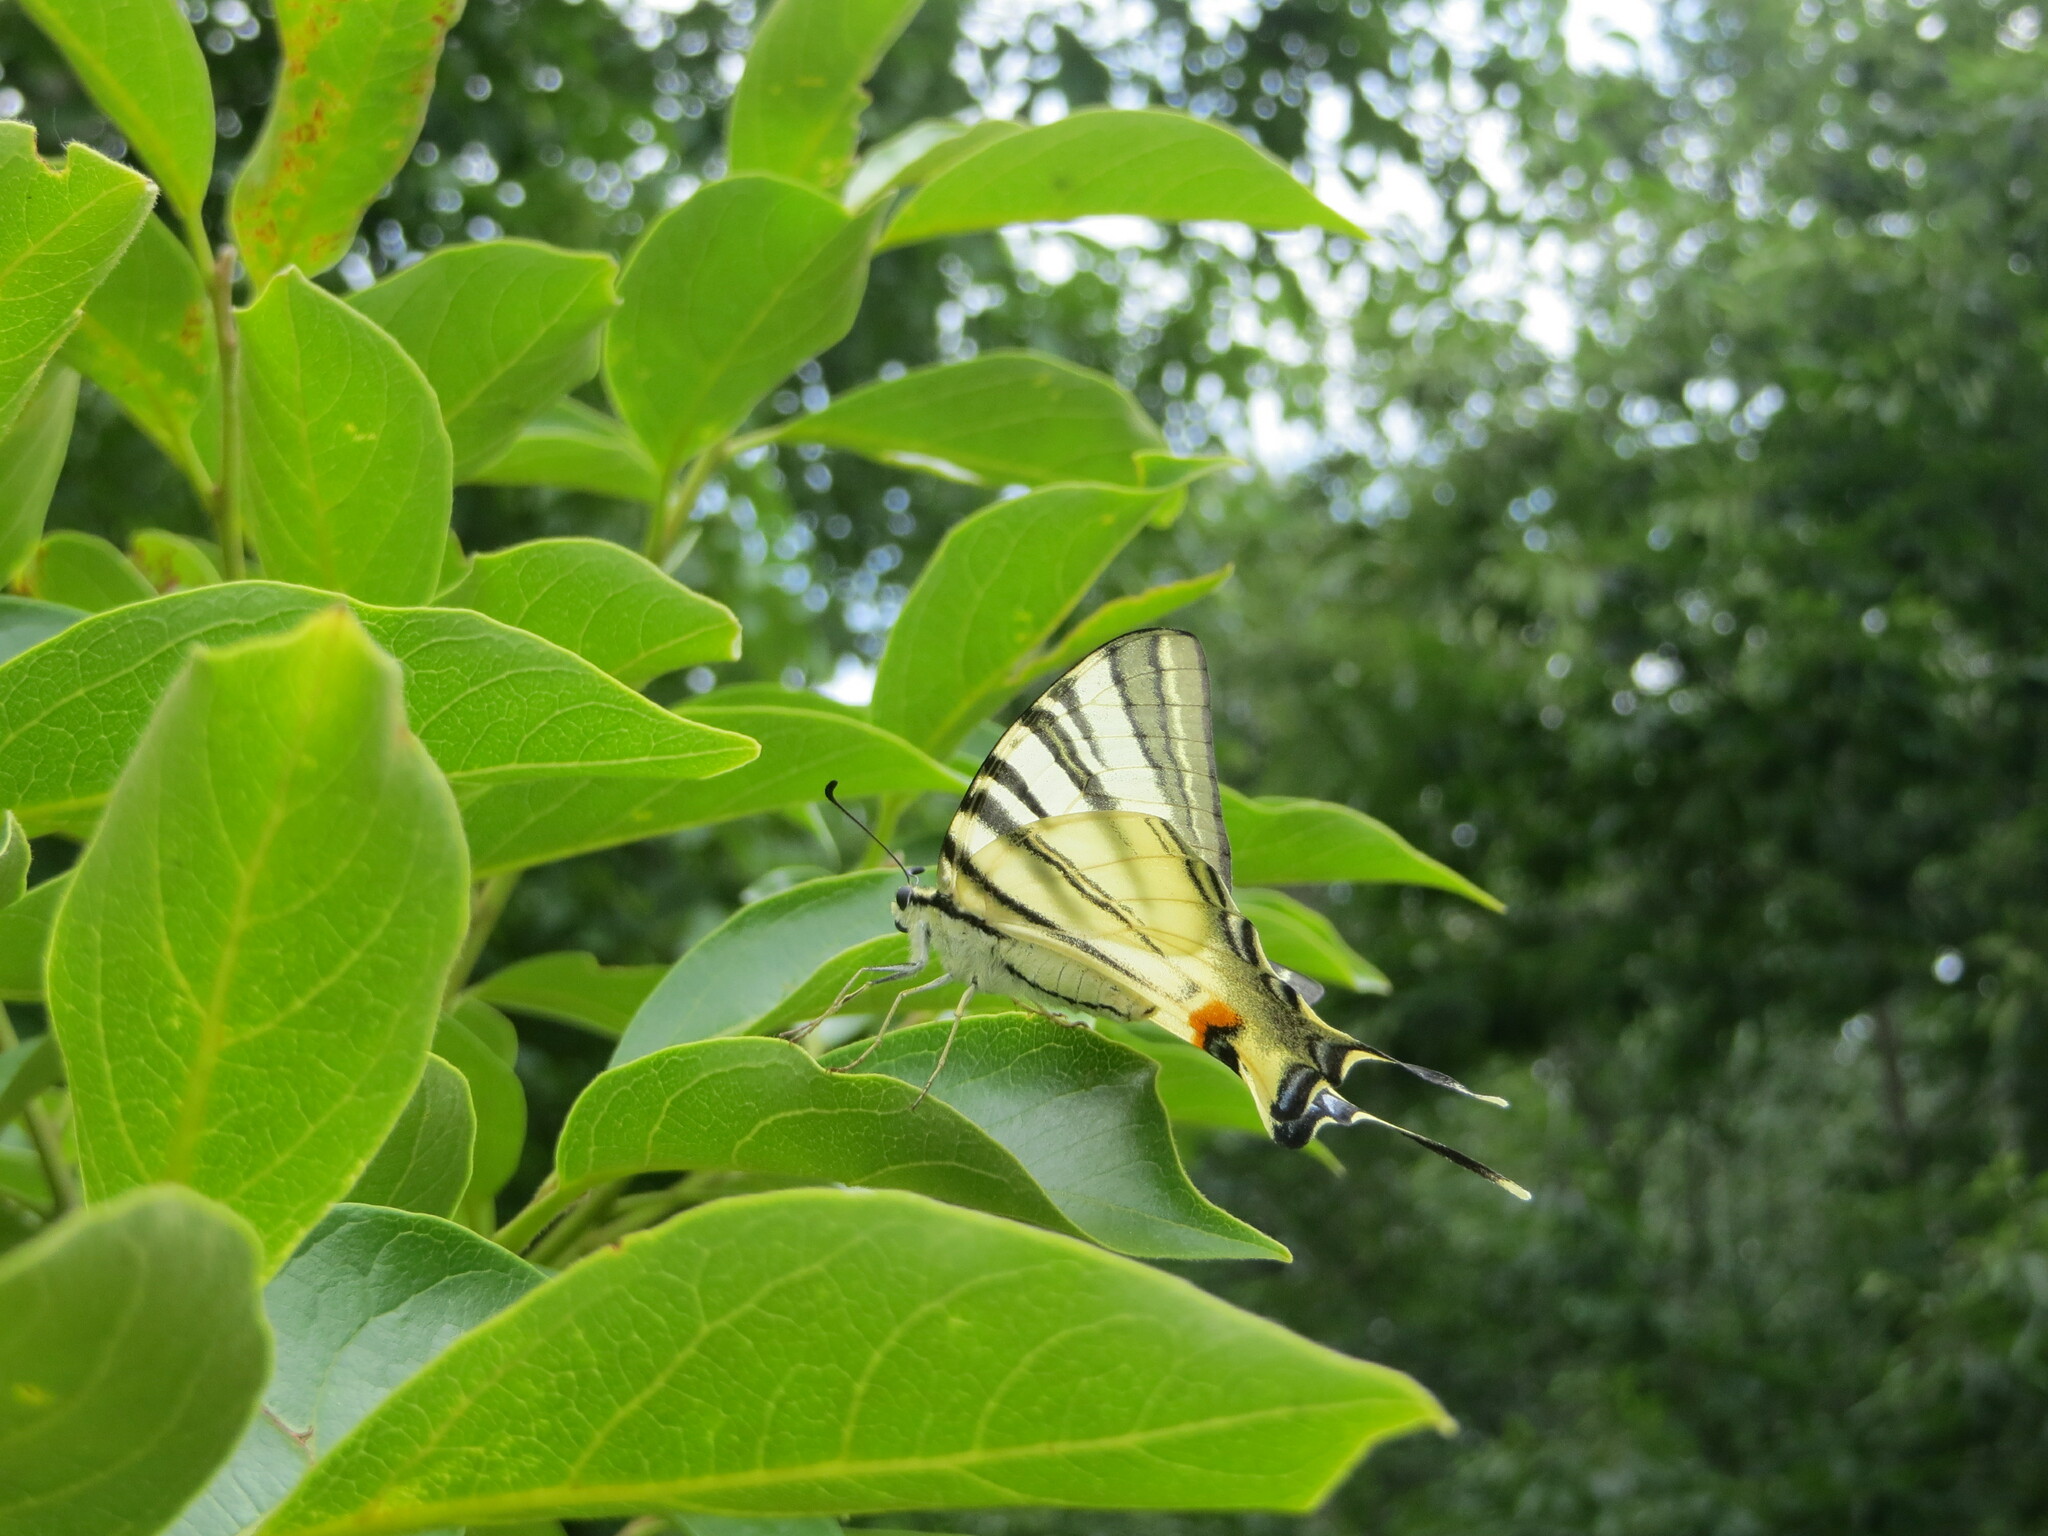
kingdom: Animalia
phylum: Arthropoda
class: Insecta
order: Lepidoptera
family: Papilionidae
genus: Iphiclides
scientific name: Iphiclides podalirius
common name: Scarce swallowtail
